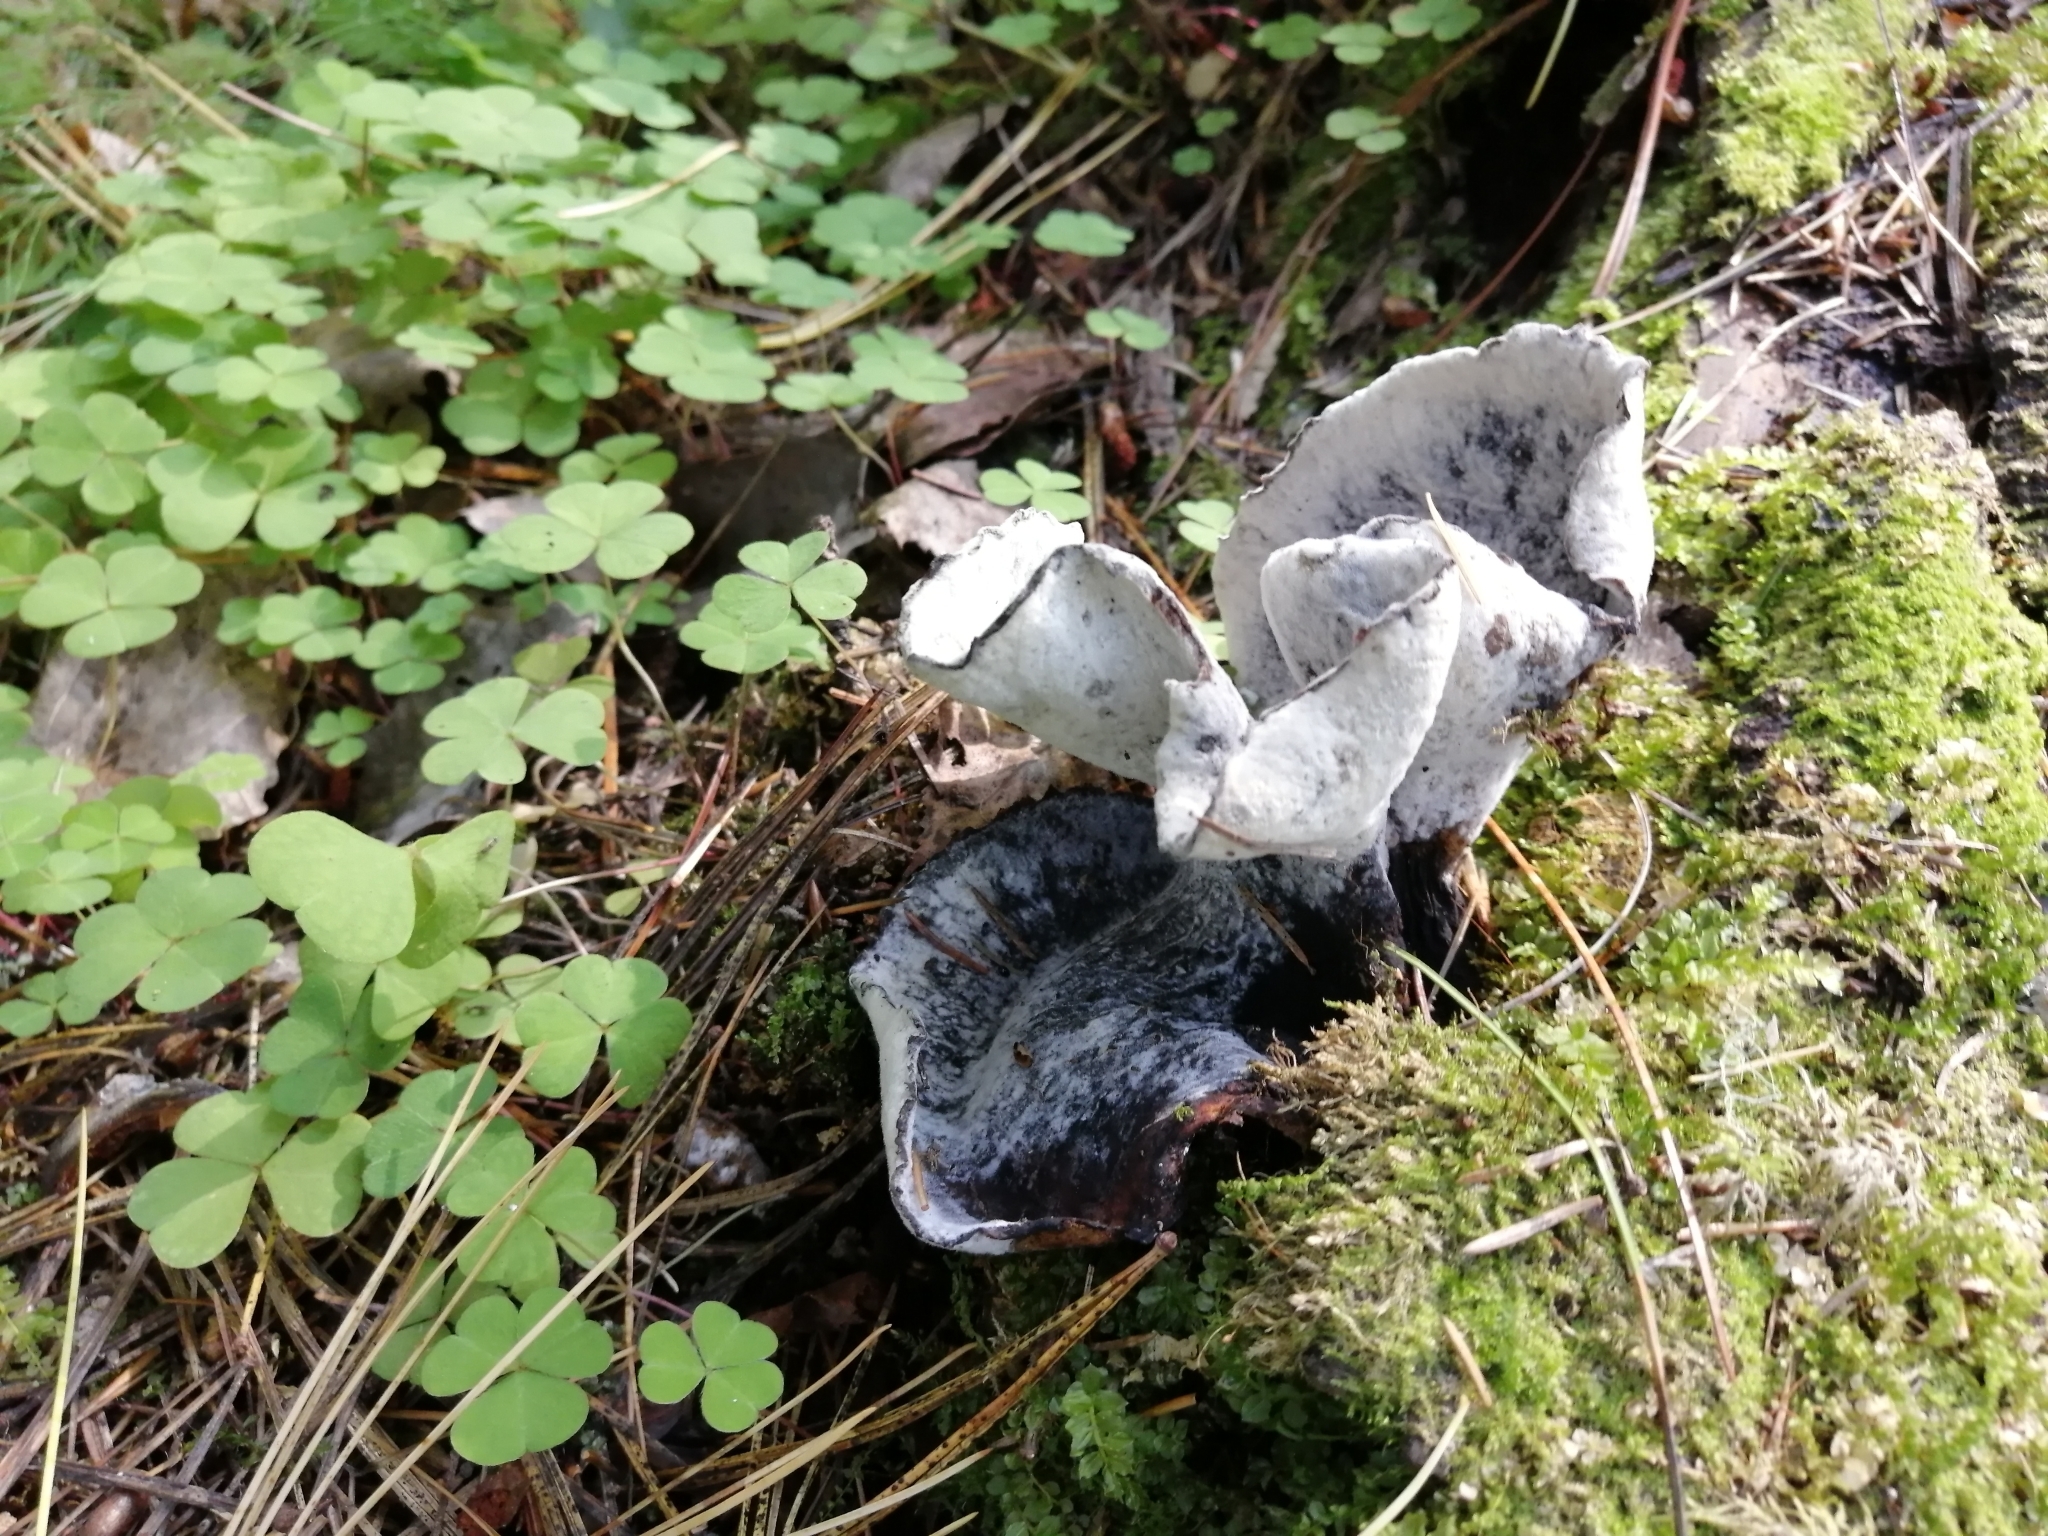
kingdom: Fungi
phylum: Basidiomycota
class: Agaricomycetes
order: Polyporales
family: Polyporaceae
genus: Picipes
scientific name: Picipes badius
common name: Bay polypore
